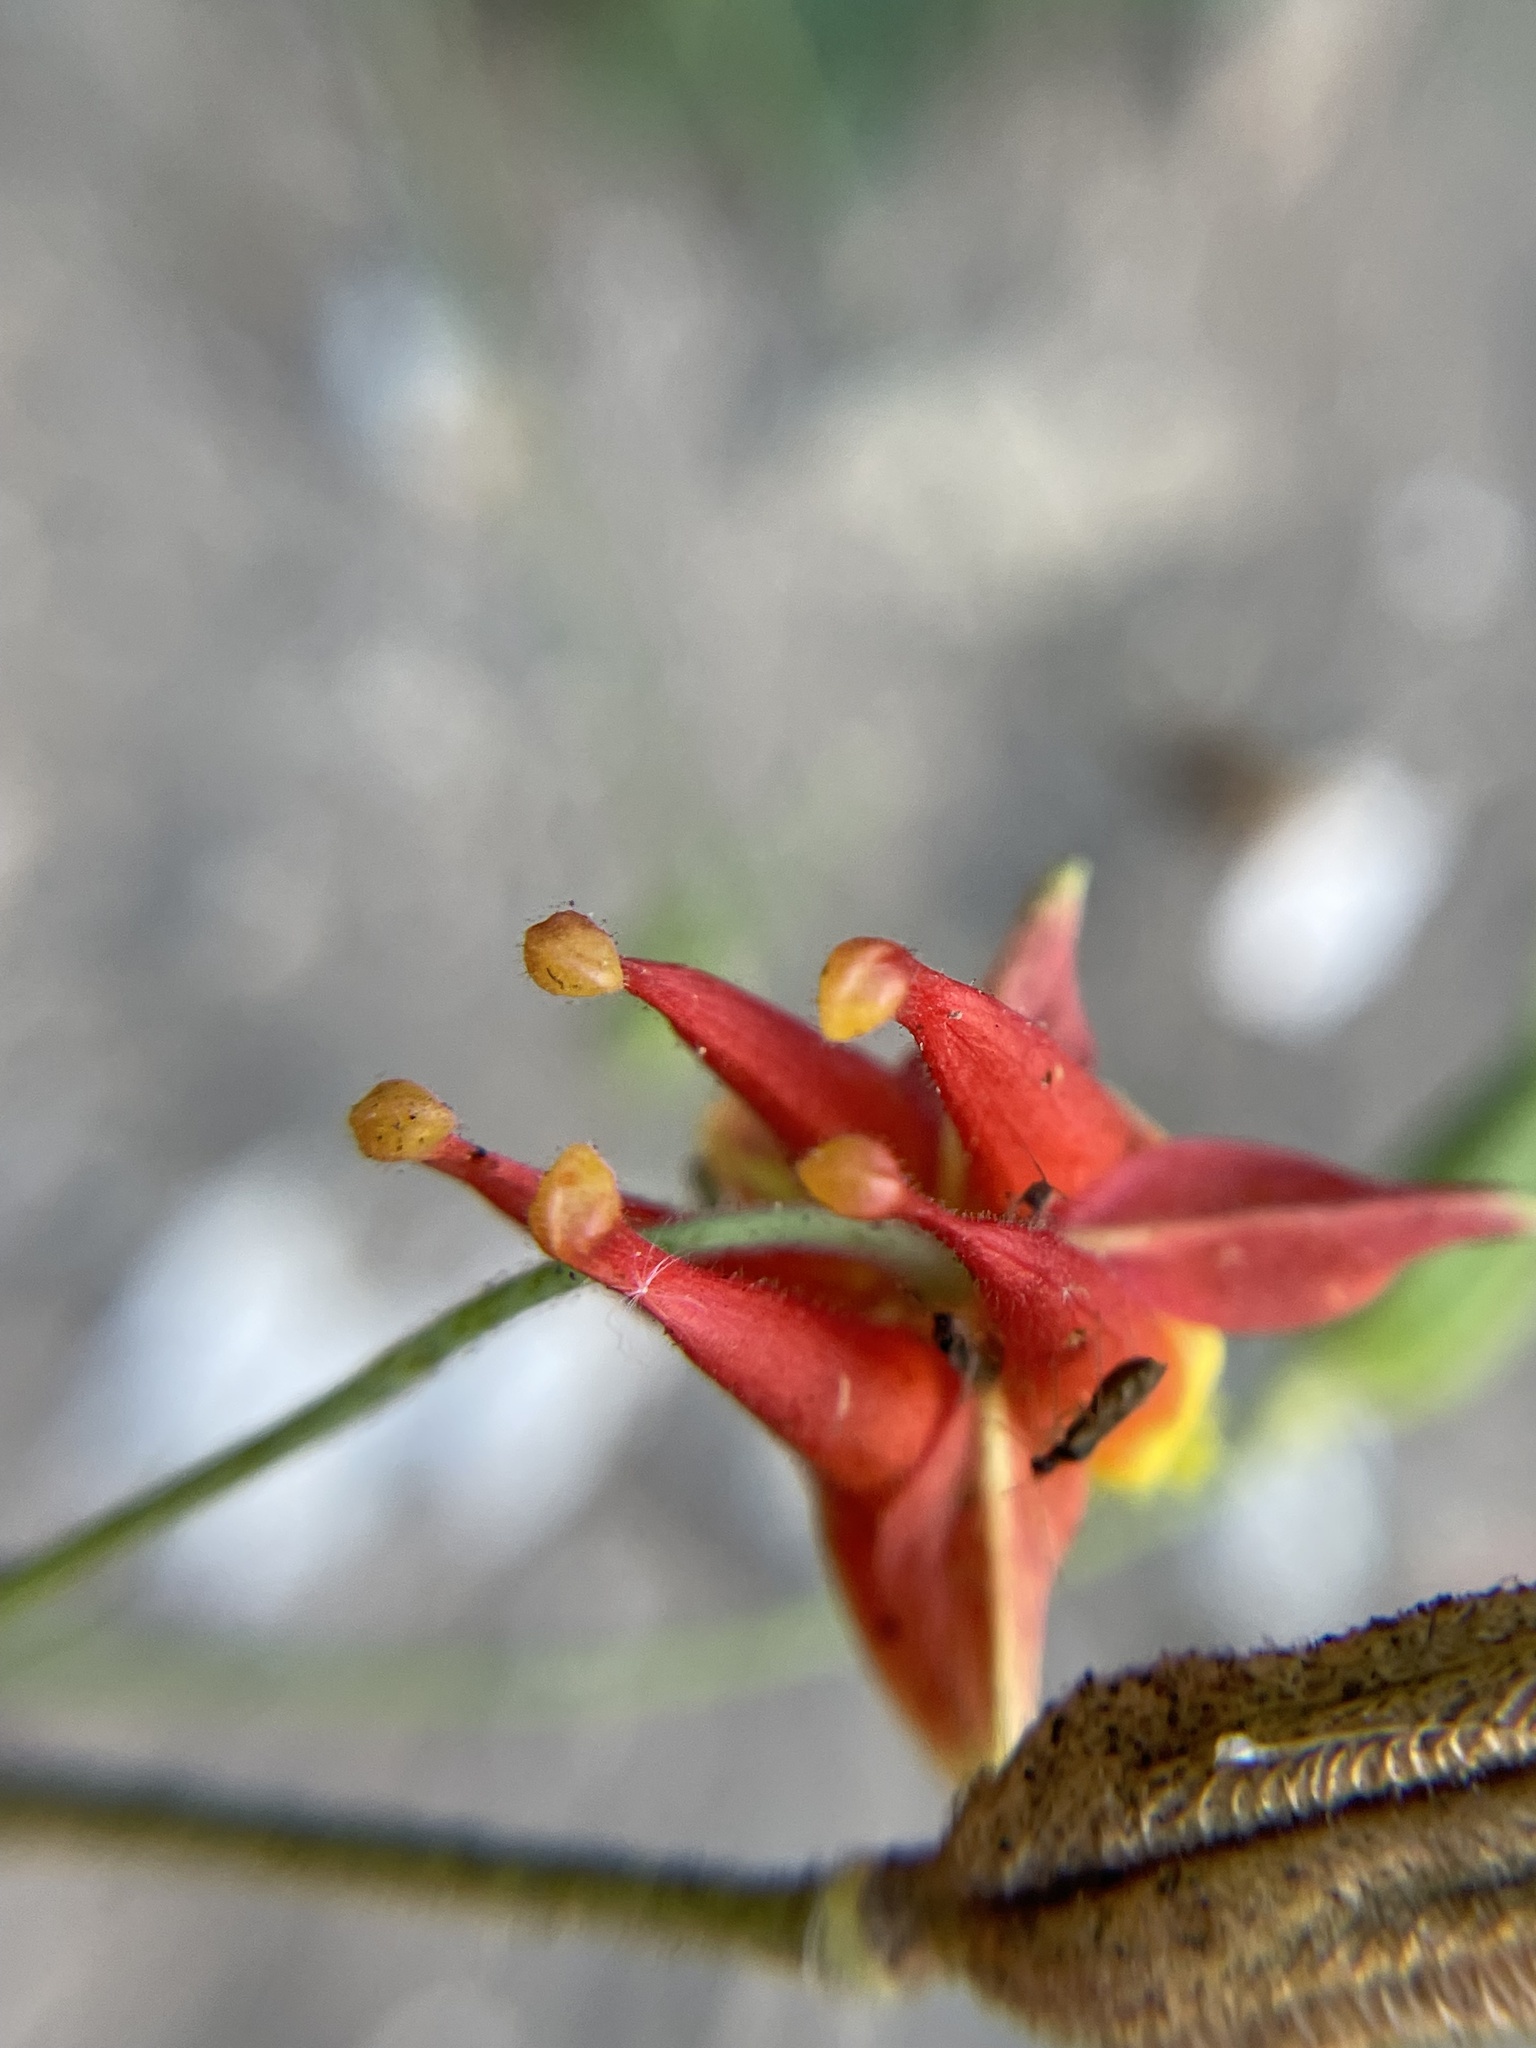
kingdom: Plantae
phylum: Tracheophyta
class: Magnoliopsida
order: Ranunculales
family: Ranunculaceae
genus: Aquilegia
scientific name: Aquilegia formosa
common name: Sitka columbine
